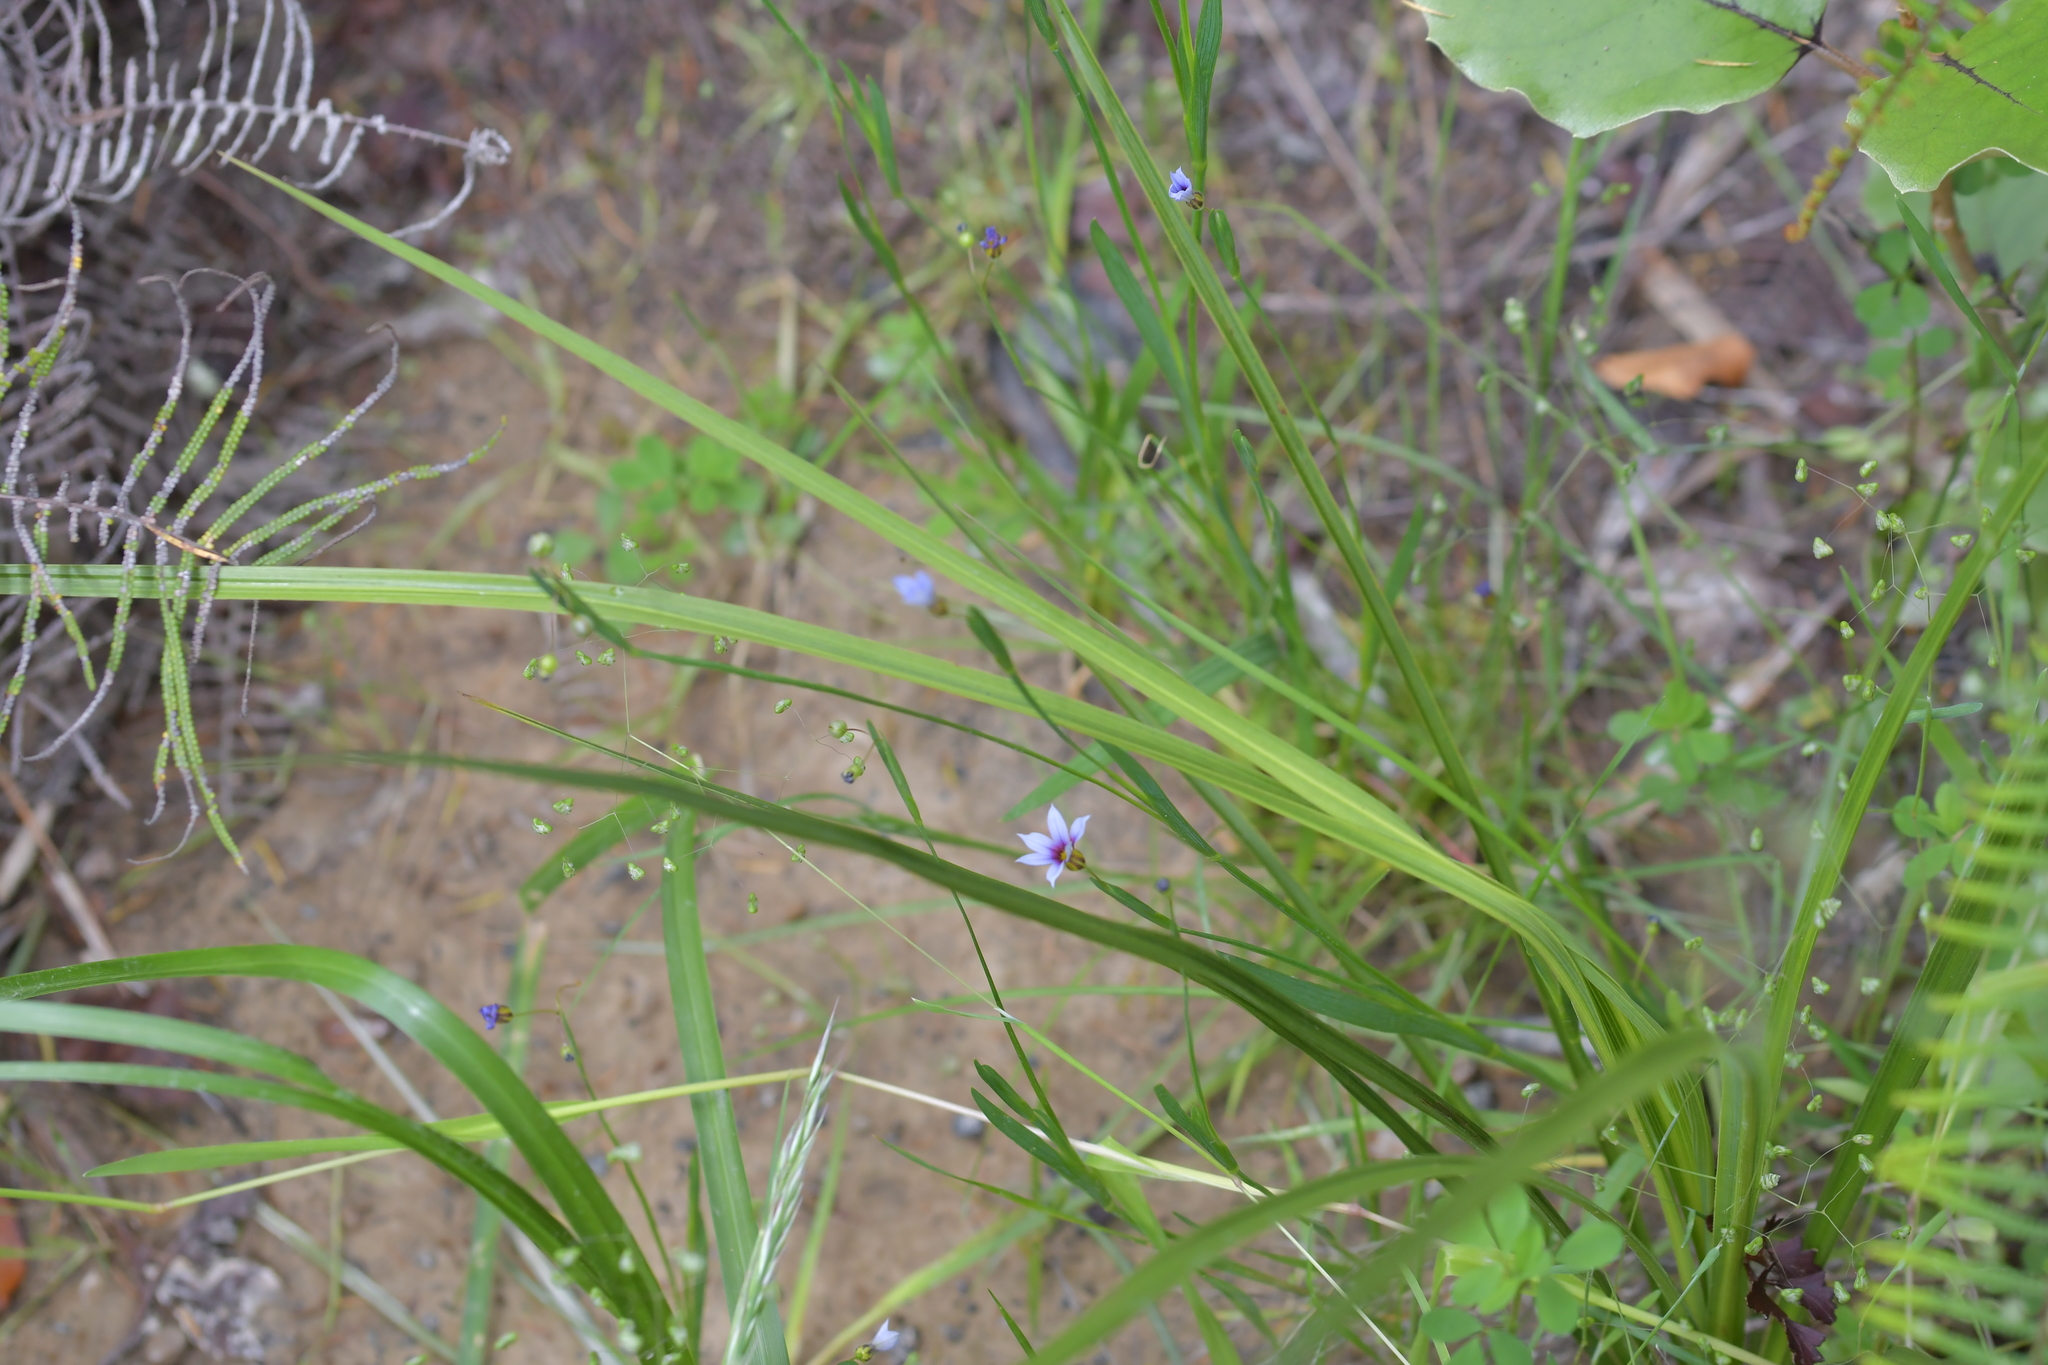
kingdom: Plantae
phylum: Tracheophyta
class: Liliopsida
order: Asparagales
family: Iridaceae
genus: Sisyrinchium
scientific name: Sisyrinchium micranthum
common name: Bermuda pigroot
